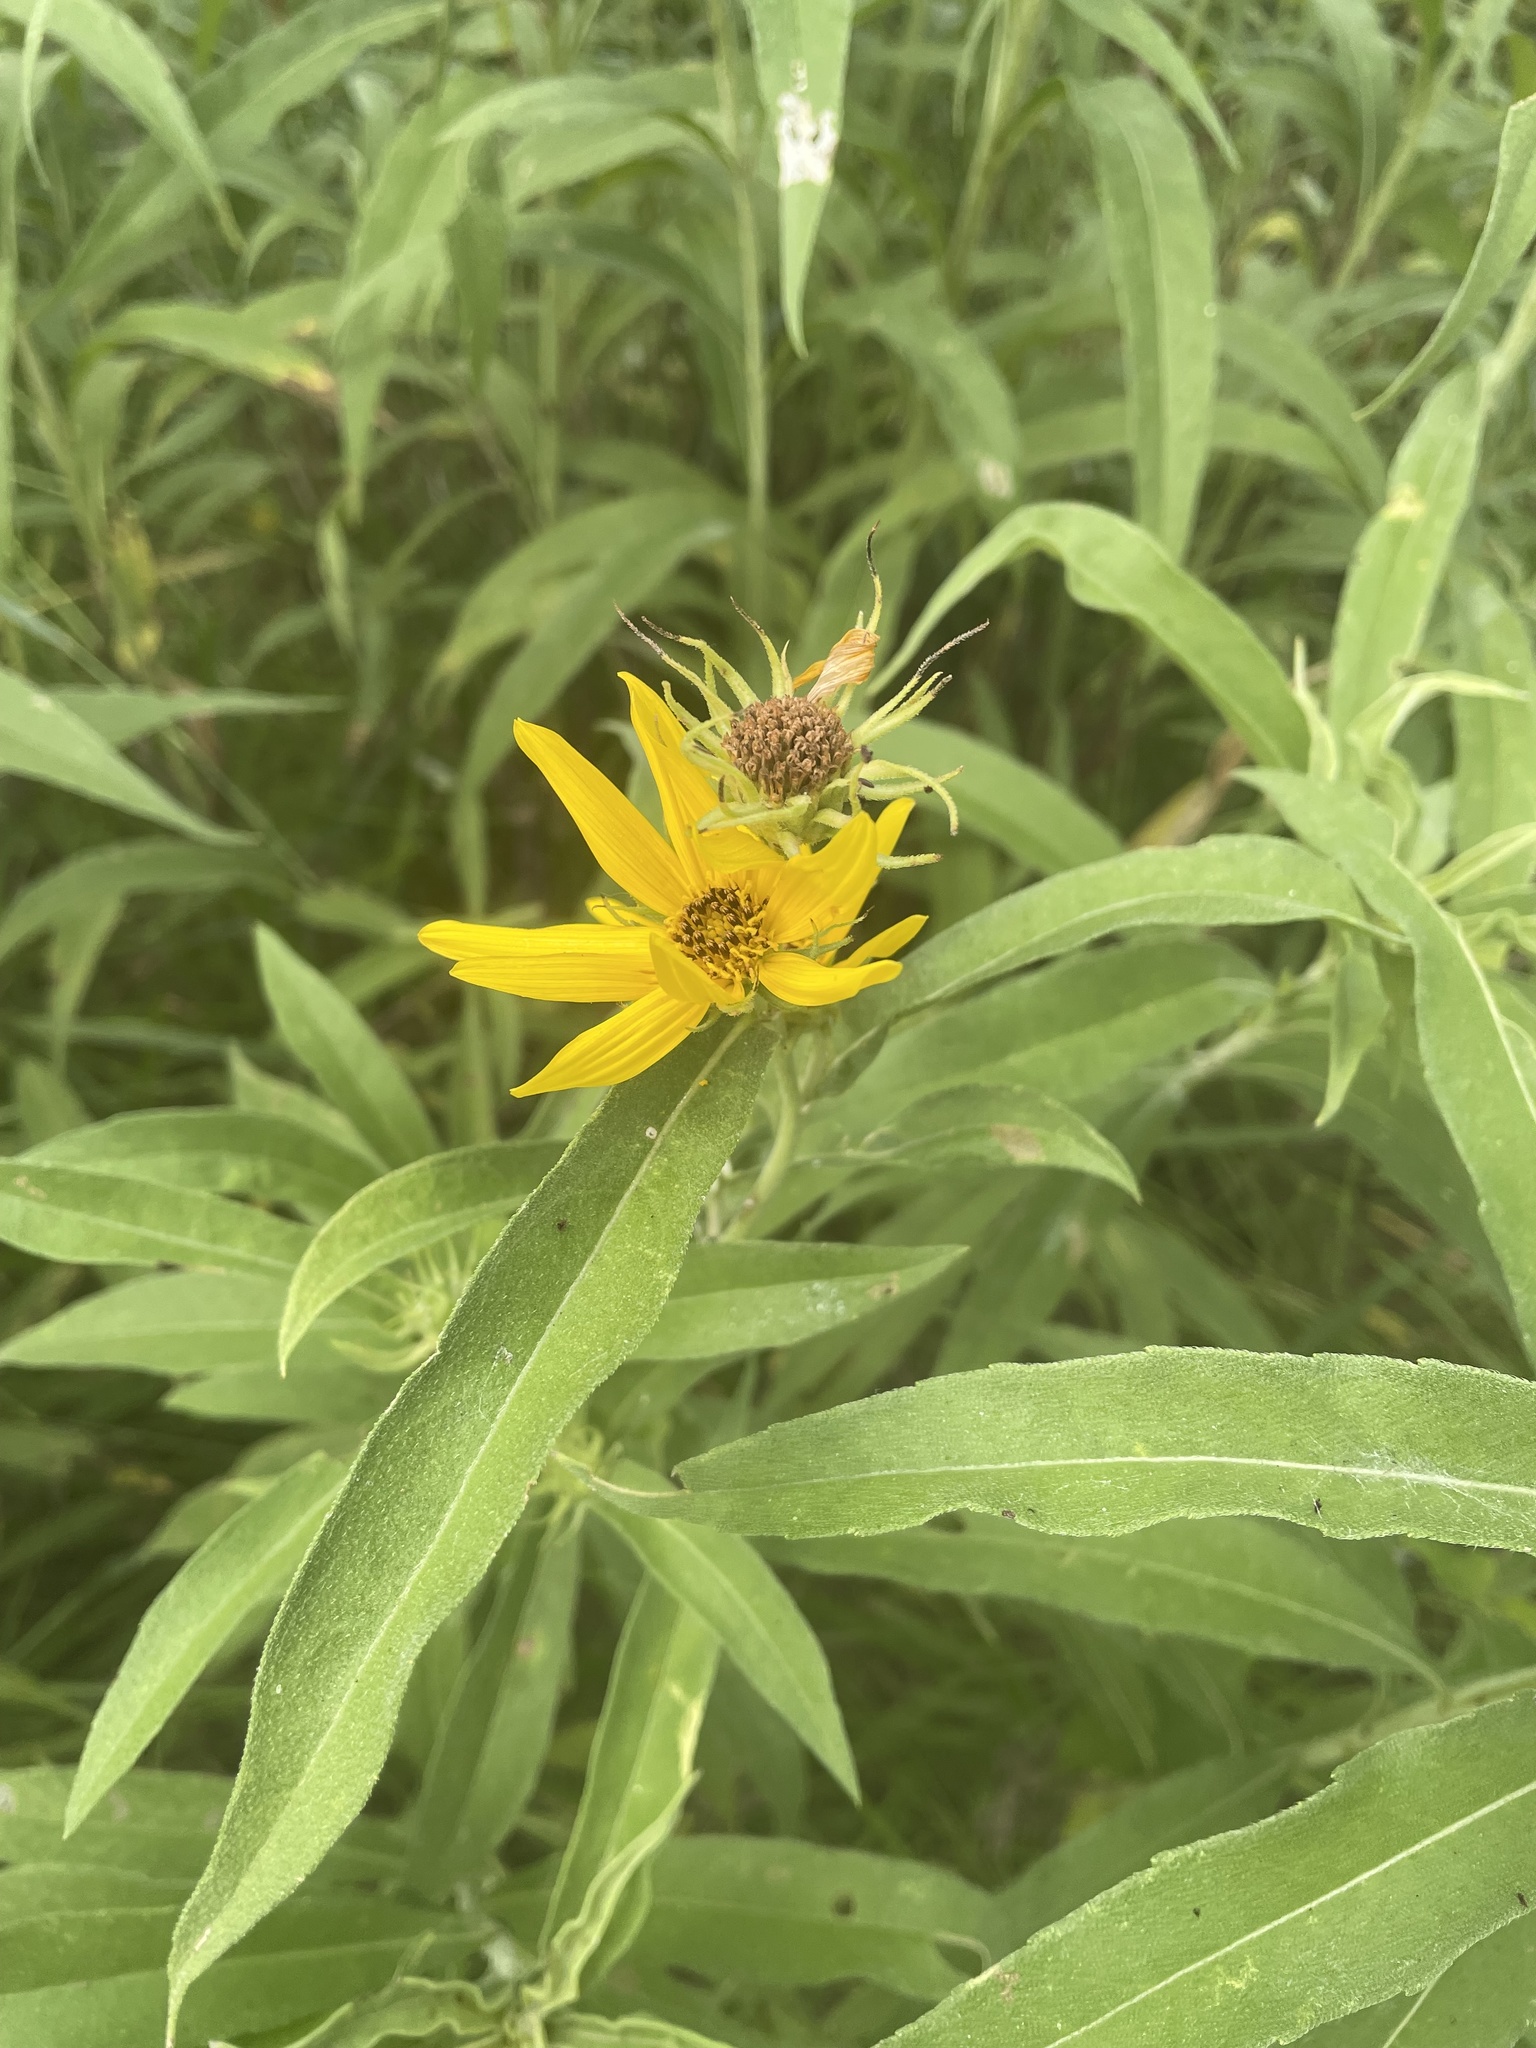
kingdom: Plantae
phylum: Tracheophyta
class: Magnoliopsida
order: Asterales
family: Asteraceae
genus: Helianthus
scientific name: Helianthus maximiliani
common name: Maximilian's sunflower
